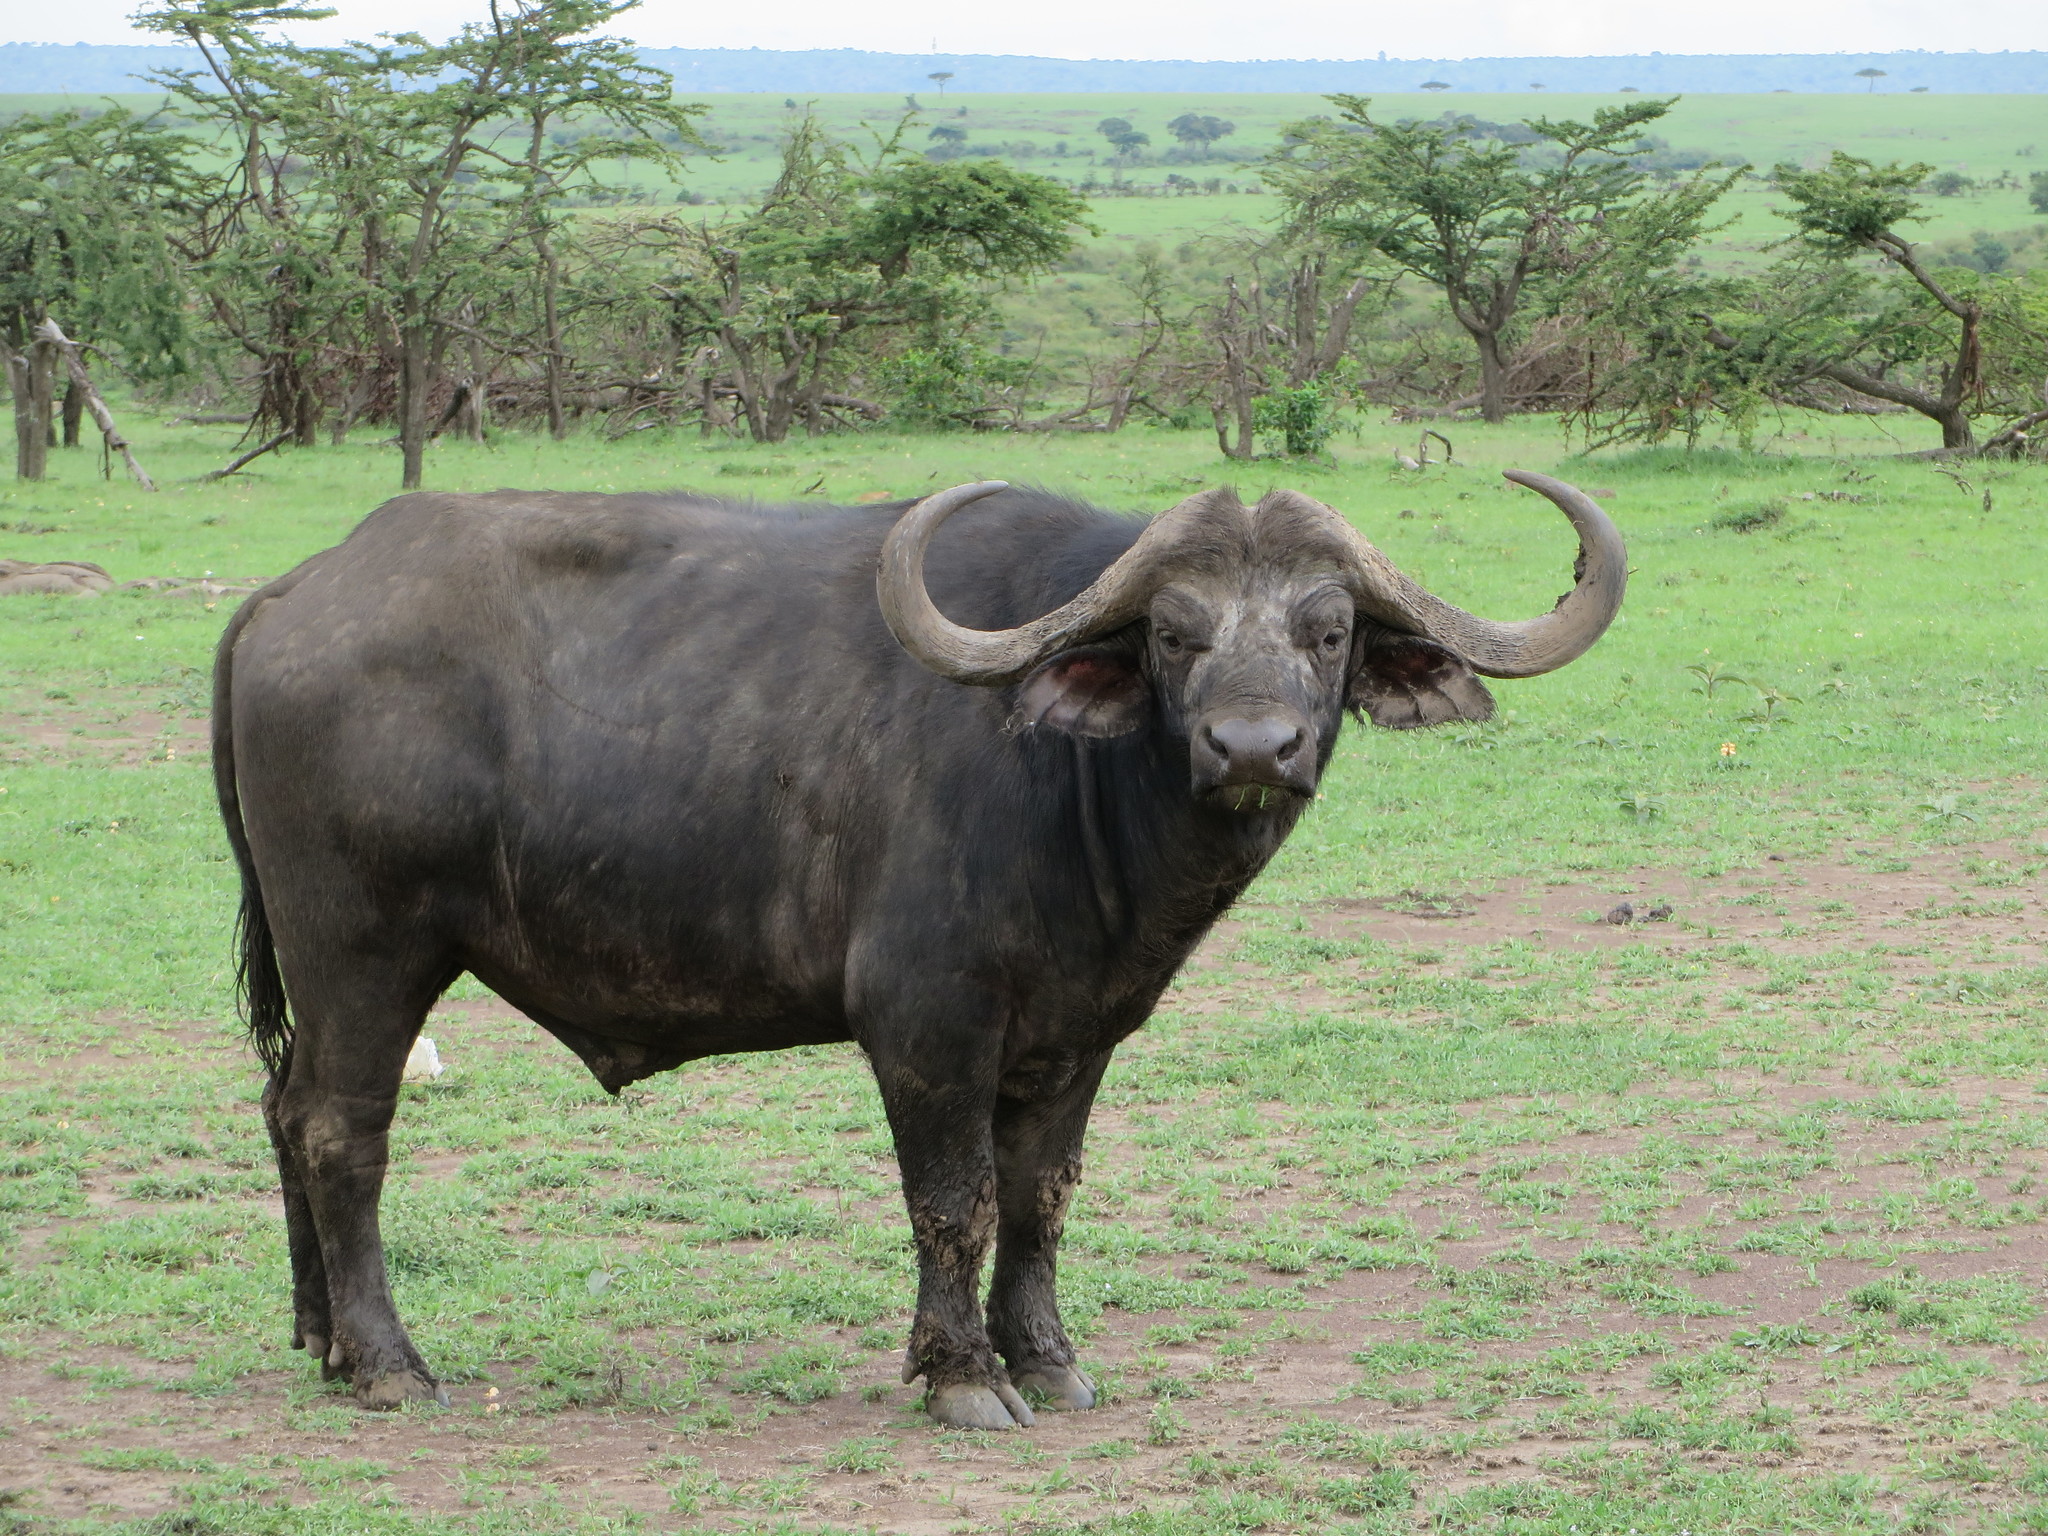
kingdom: Animalia
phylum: Chordata
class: Mammalia
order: Artiodactyla
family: Bovidae
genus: Syncerus
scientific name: Syncerus caffer
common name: African buffalo
